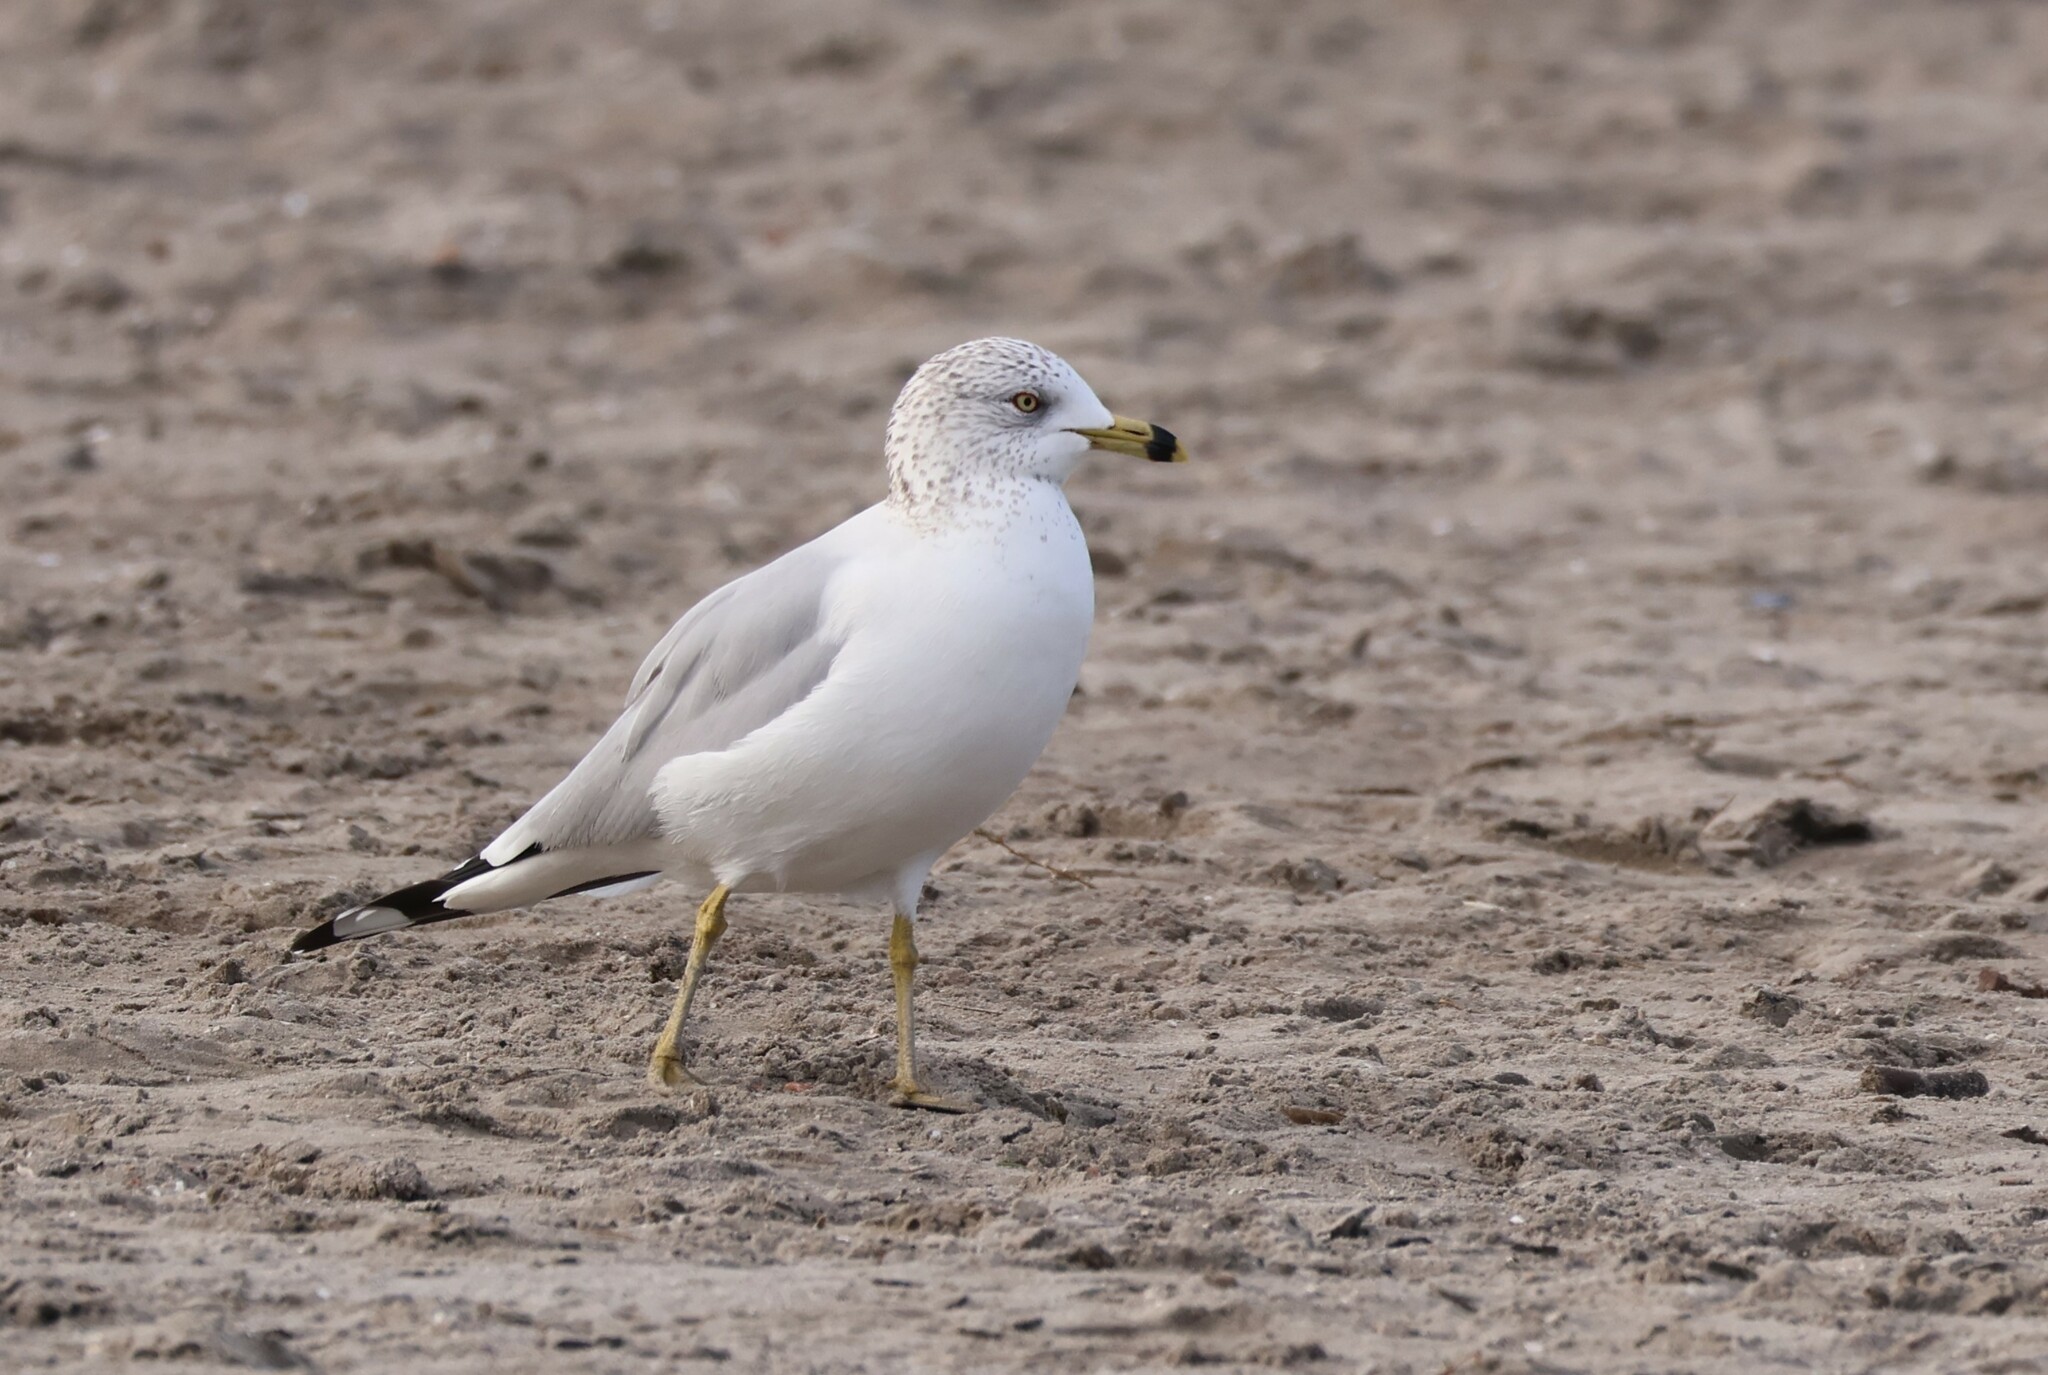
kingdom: Animalia
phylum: Chordata
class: Aves
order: Charadriiformes
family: Laridae
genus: Larus
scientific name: Larus delawarensis
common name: Ring-billed gull
